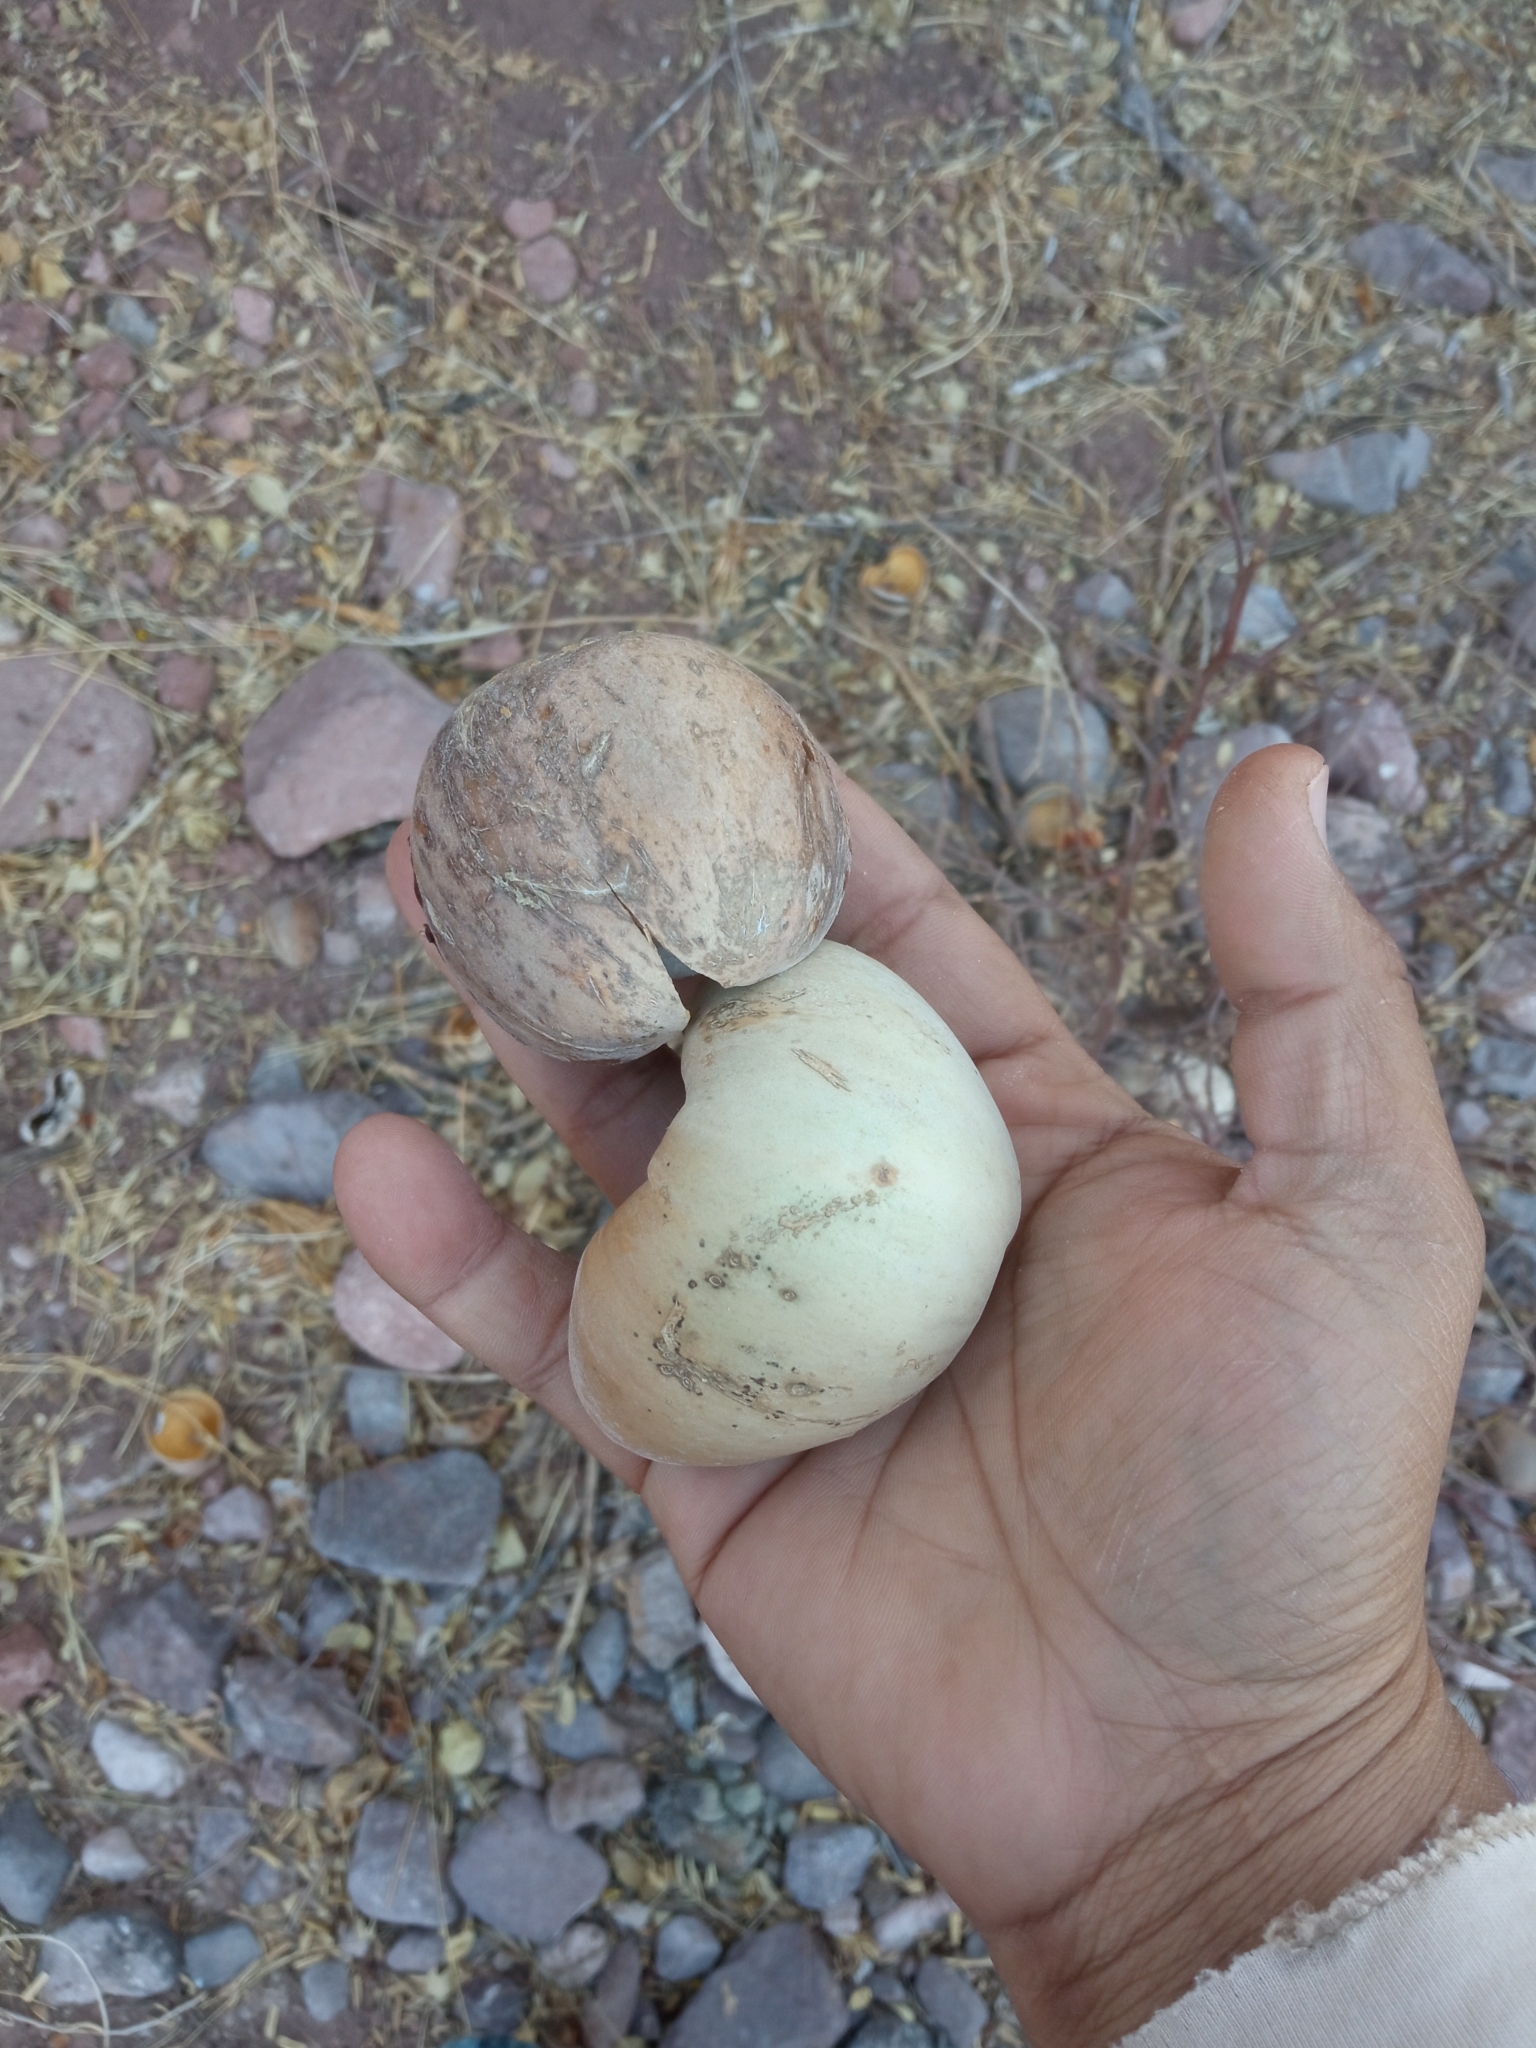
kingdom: Plantae
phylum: Tracheophyta
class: Magnoliopsida
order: Gentianales
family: Apocynaceae
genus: Ruehssia
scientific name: Ruehssia edulis
